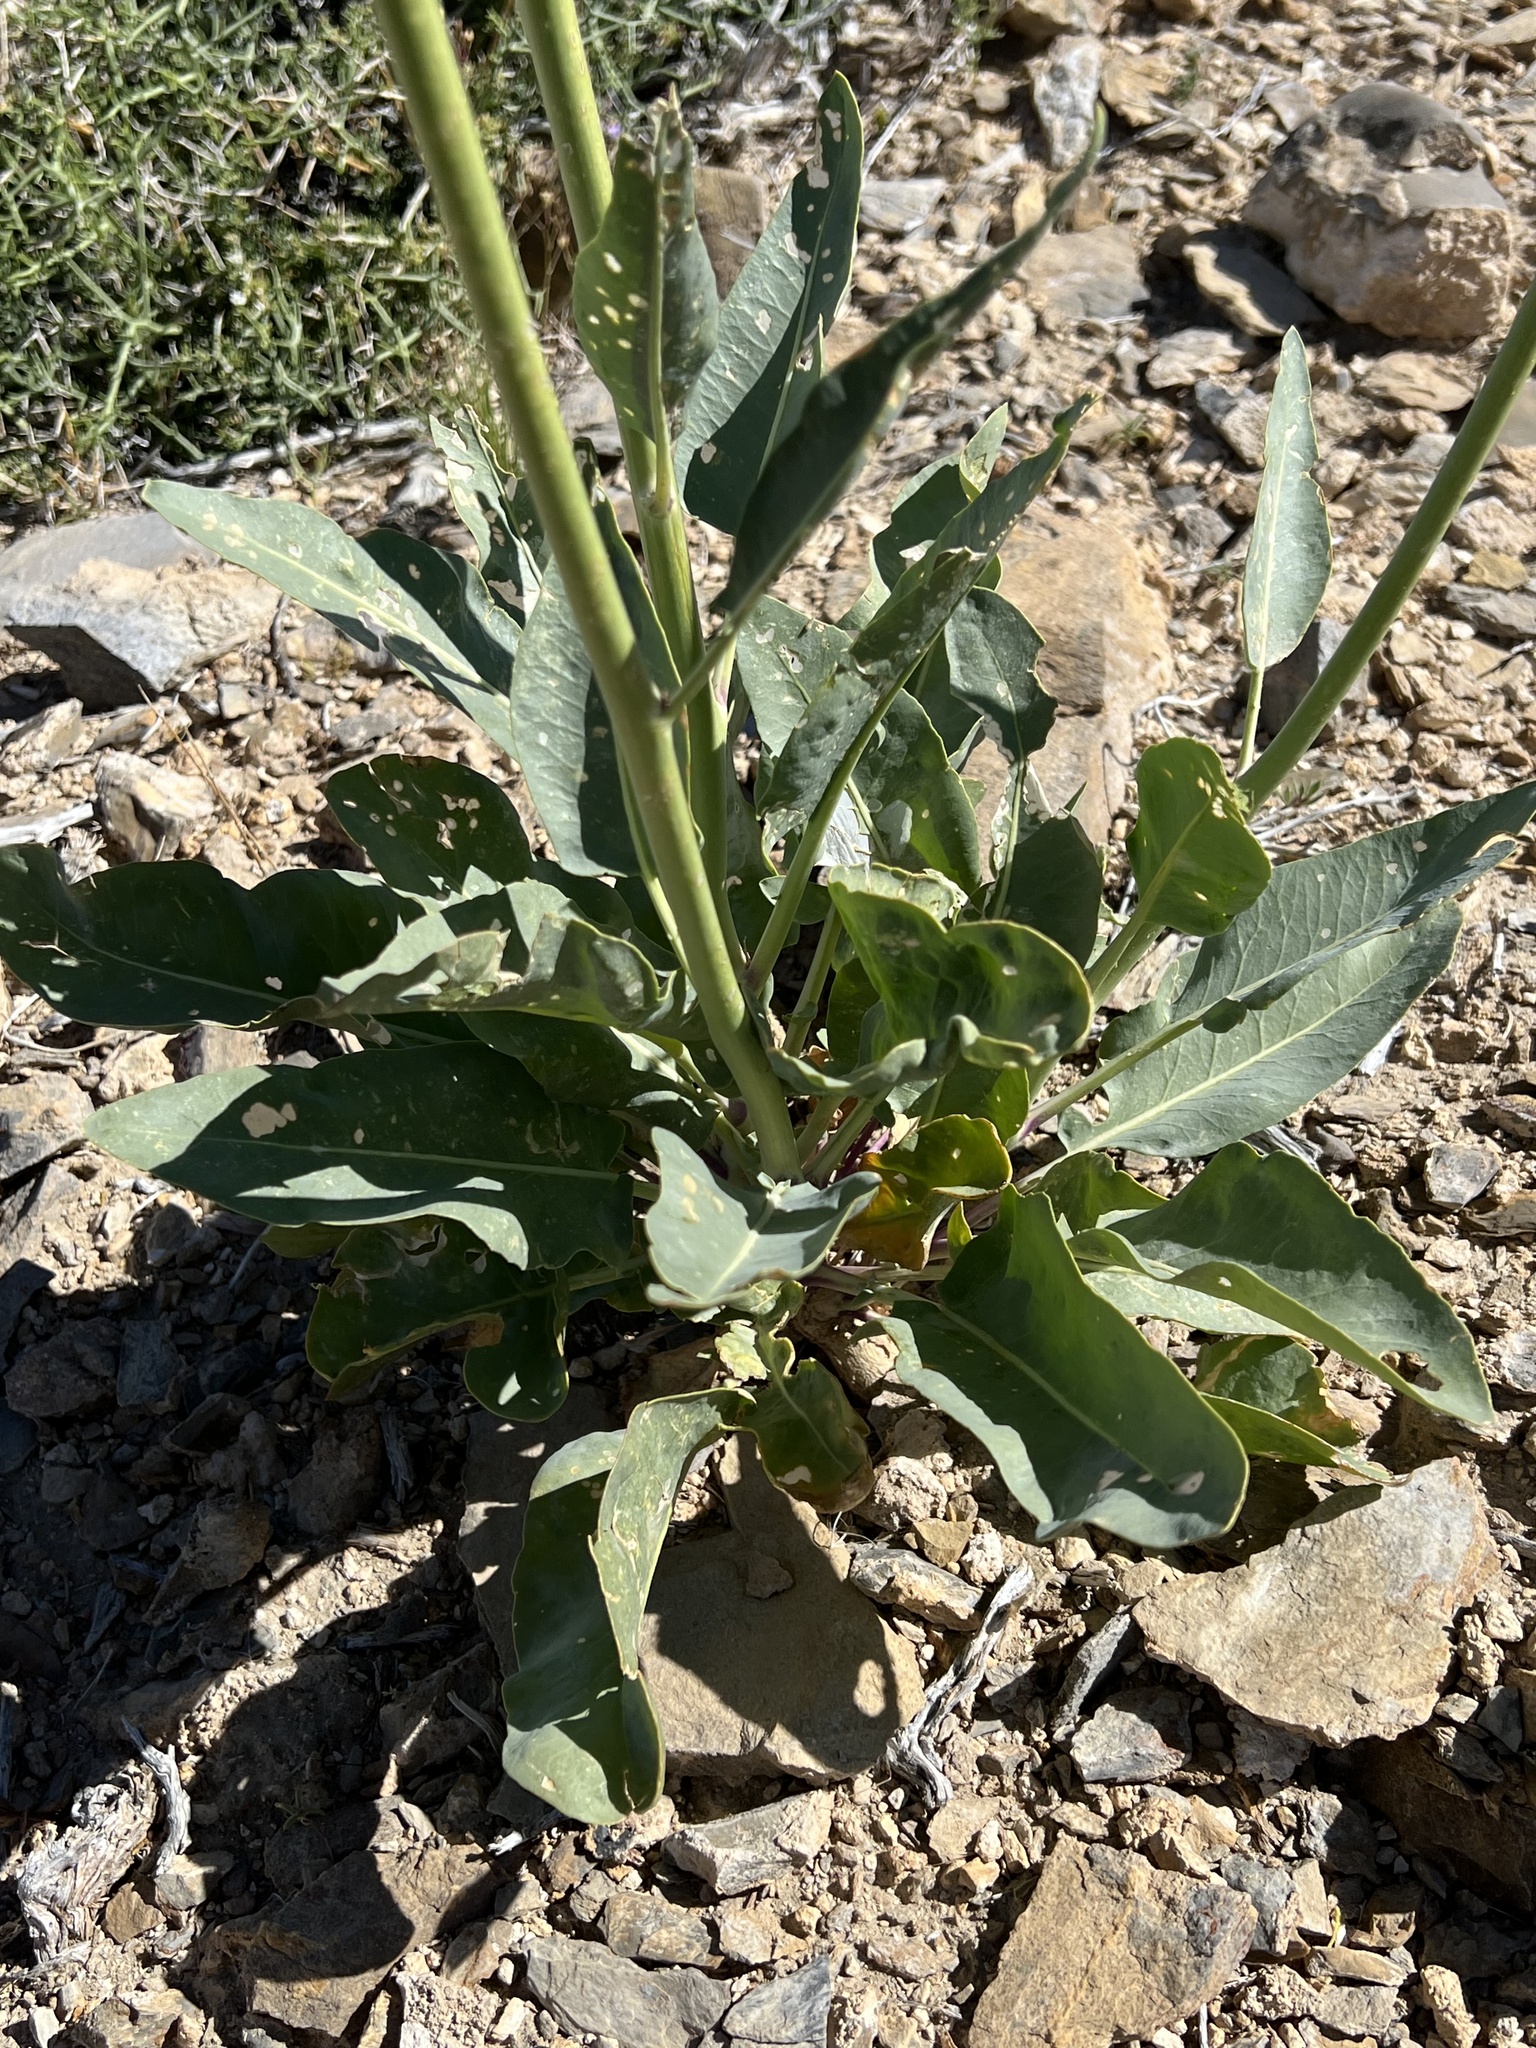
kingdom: Plantae
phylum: Tracheophyta
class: Magnoliopsida
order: Brassicales
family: Brassicaceae
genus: Stanleya
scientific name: Stanleya elata
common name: Panamint prince's plume
